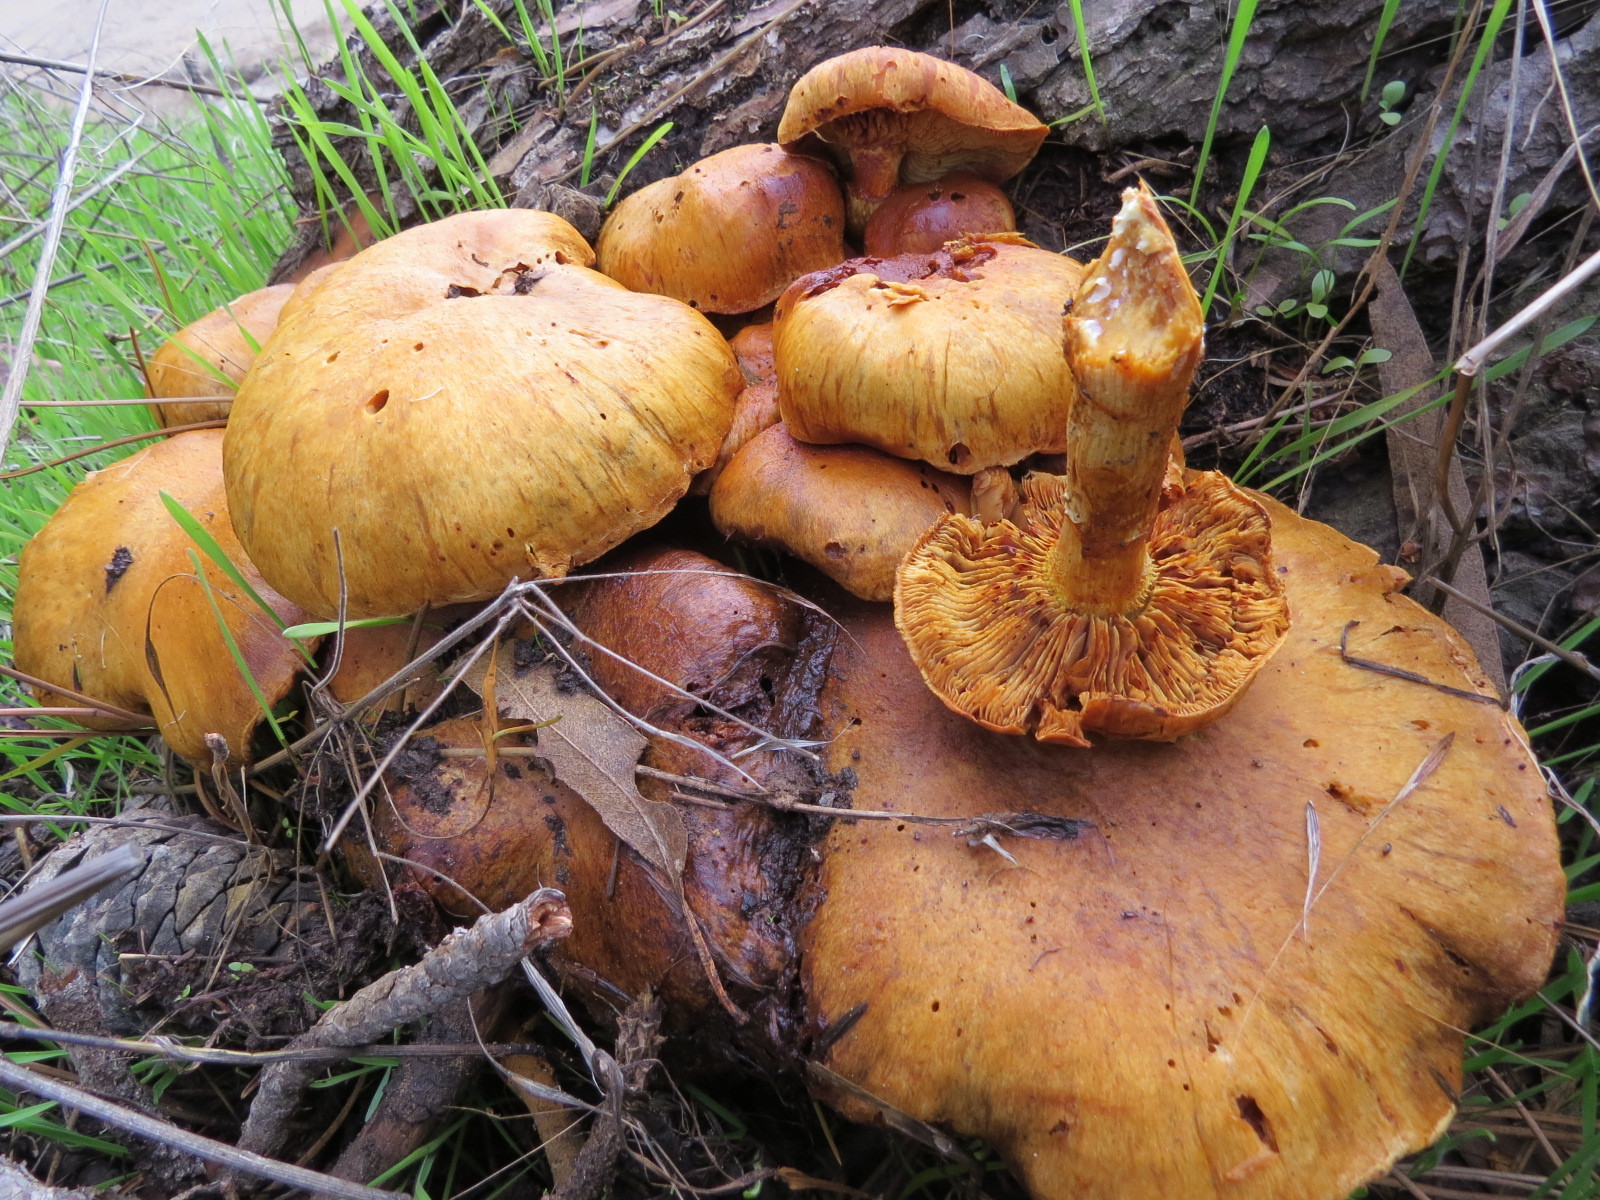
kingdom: Fungi
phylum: Basidiomycota
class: Agaricomycetes
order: Agaricales
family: Hymenogastraceae
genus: Gymnopilus
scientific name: Gymnopilus ventricosus
